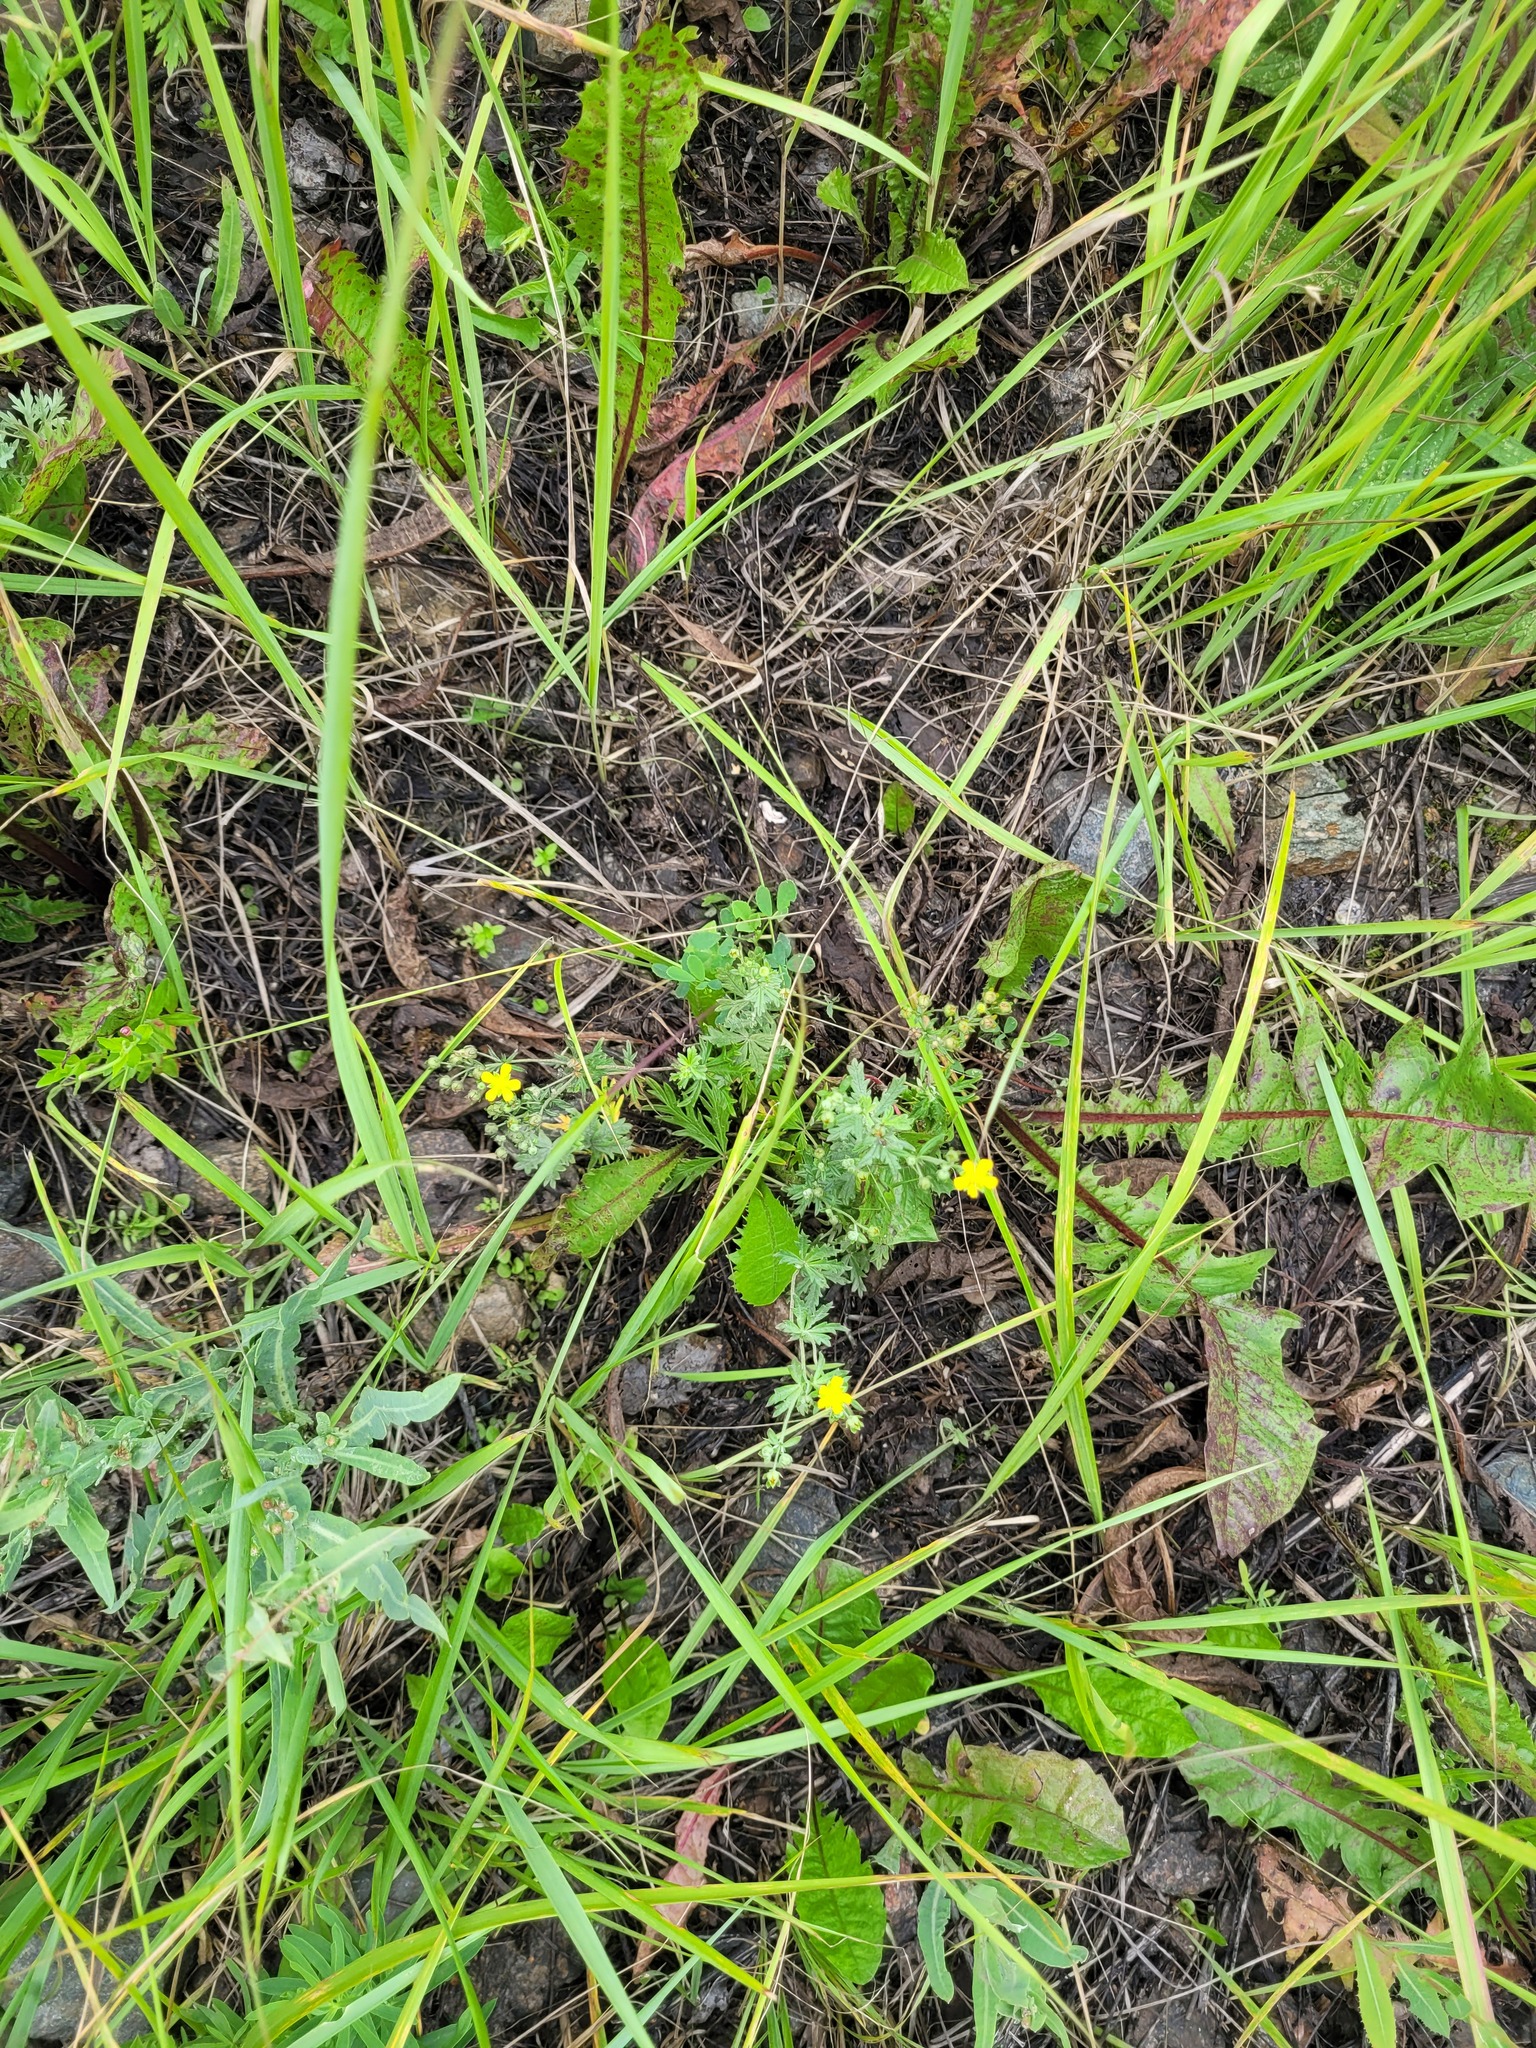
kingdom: Plantae
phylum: Tracheophyta
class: Magnoliopsida
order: Rosales
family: Rosaceae
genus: Potentilla
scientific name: Potentilla argentea
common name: Hoary cinquefoil
